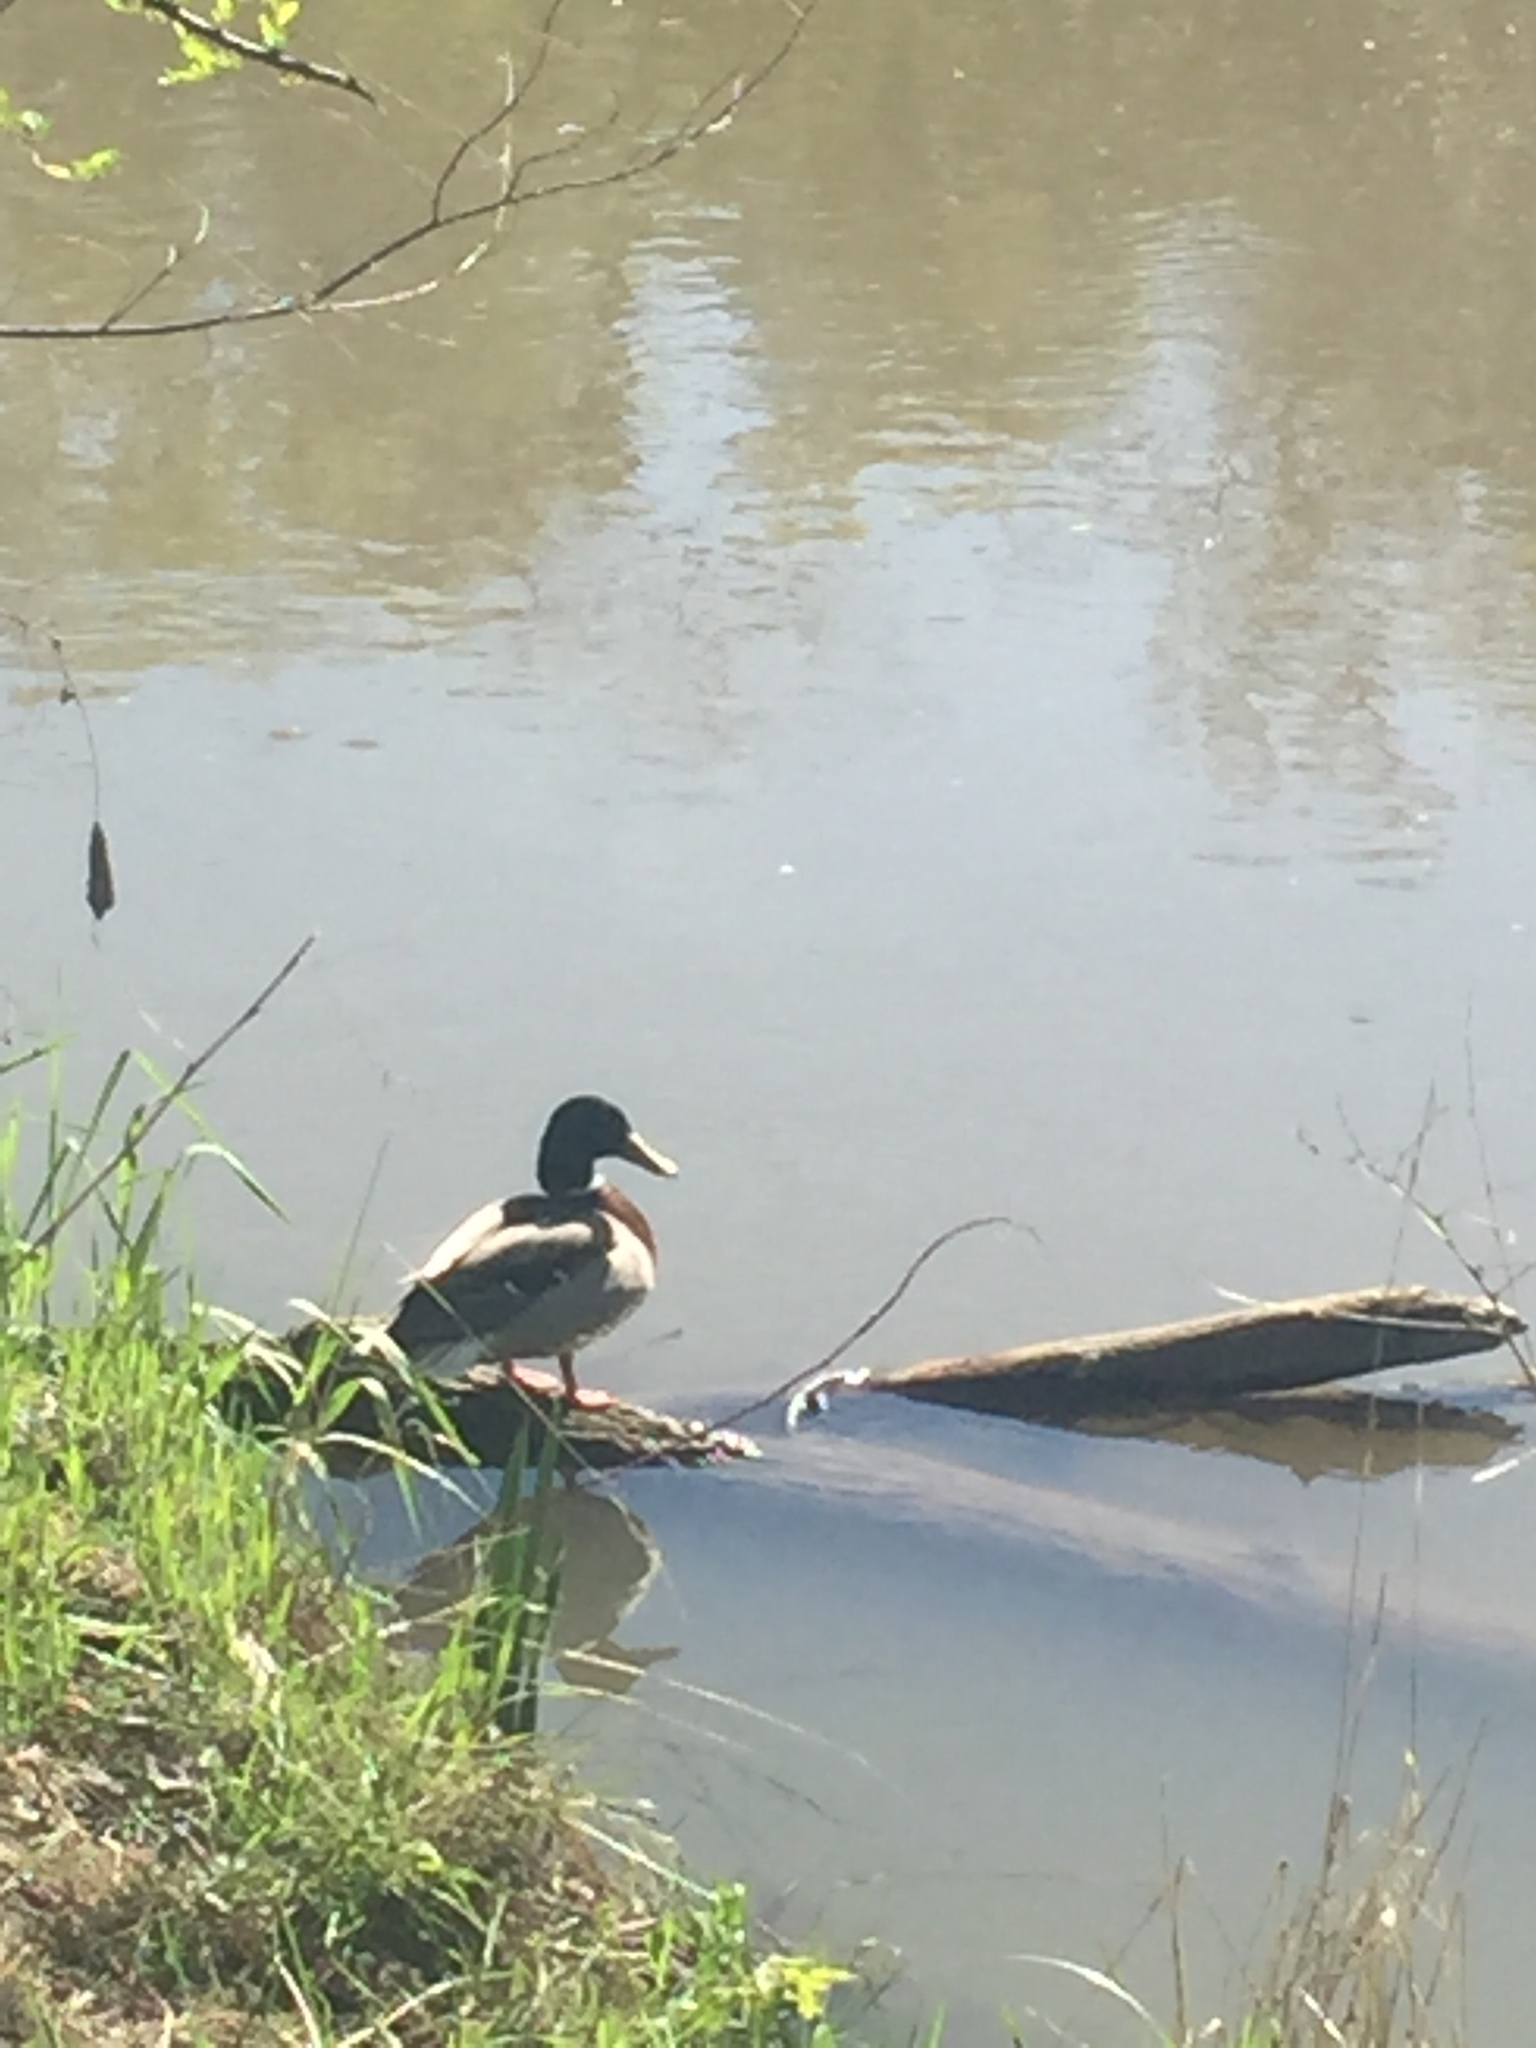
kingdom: Animalia
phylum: Chordata
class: Aves
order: Anseriformes
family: Anatidae
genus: Anas
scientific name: Anas platyrhynchos
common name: Mallard
